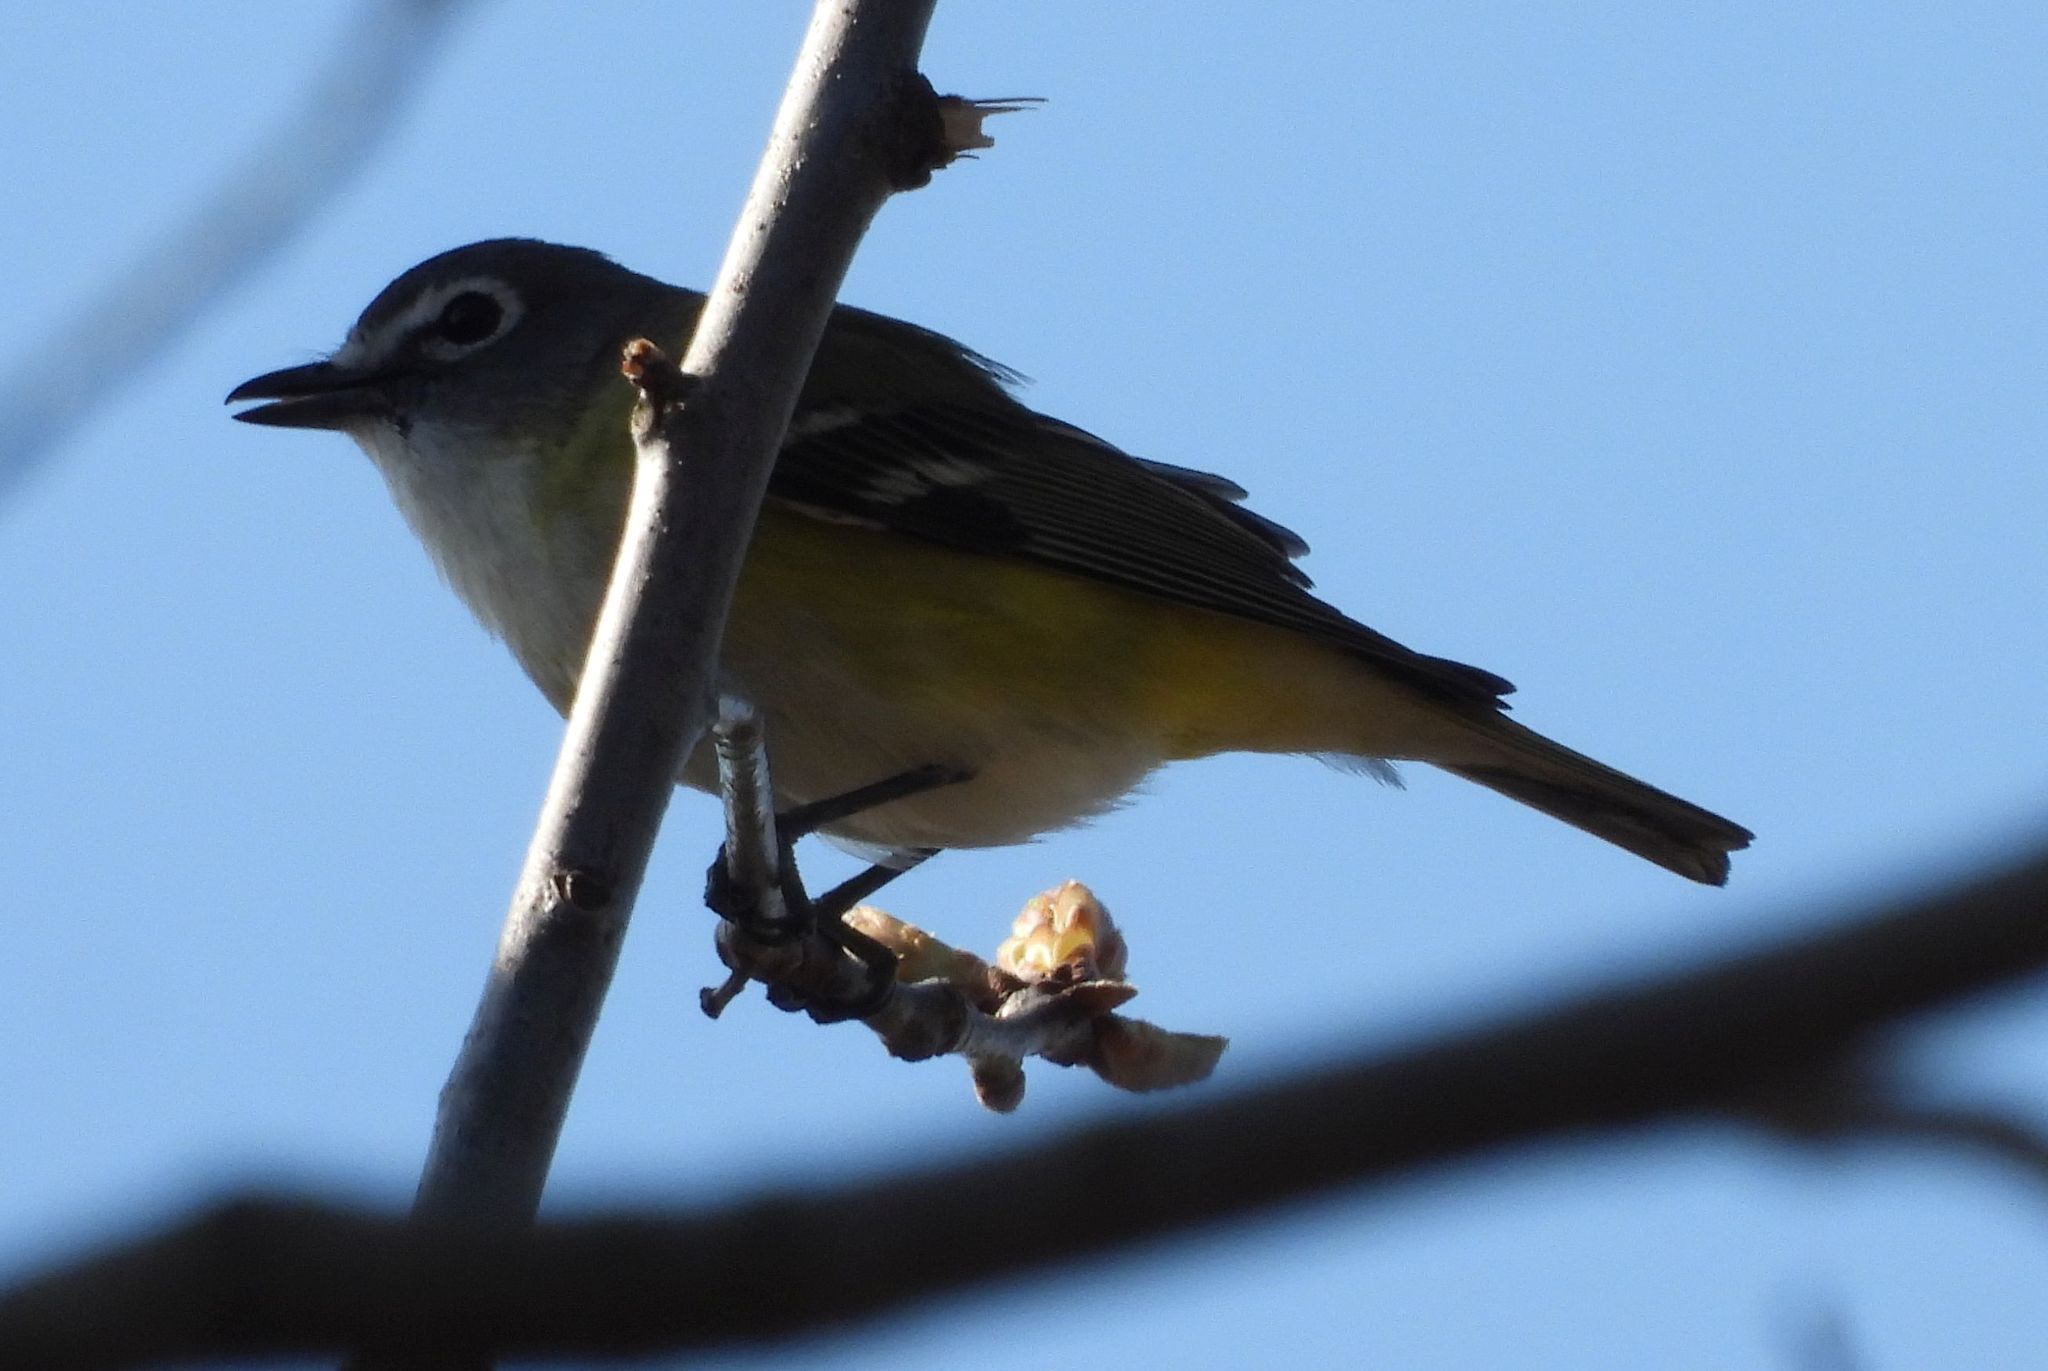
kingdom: Animalia
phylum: Chordata
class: Aves
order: Passeriformes
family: Vireonidae
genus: Vireo
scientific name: Vireo solitarius
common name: Blue-headed vireo
